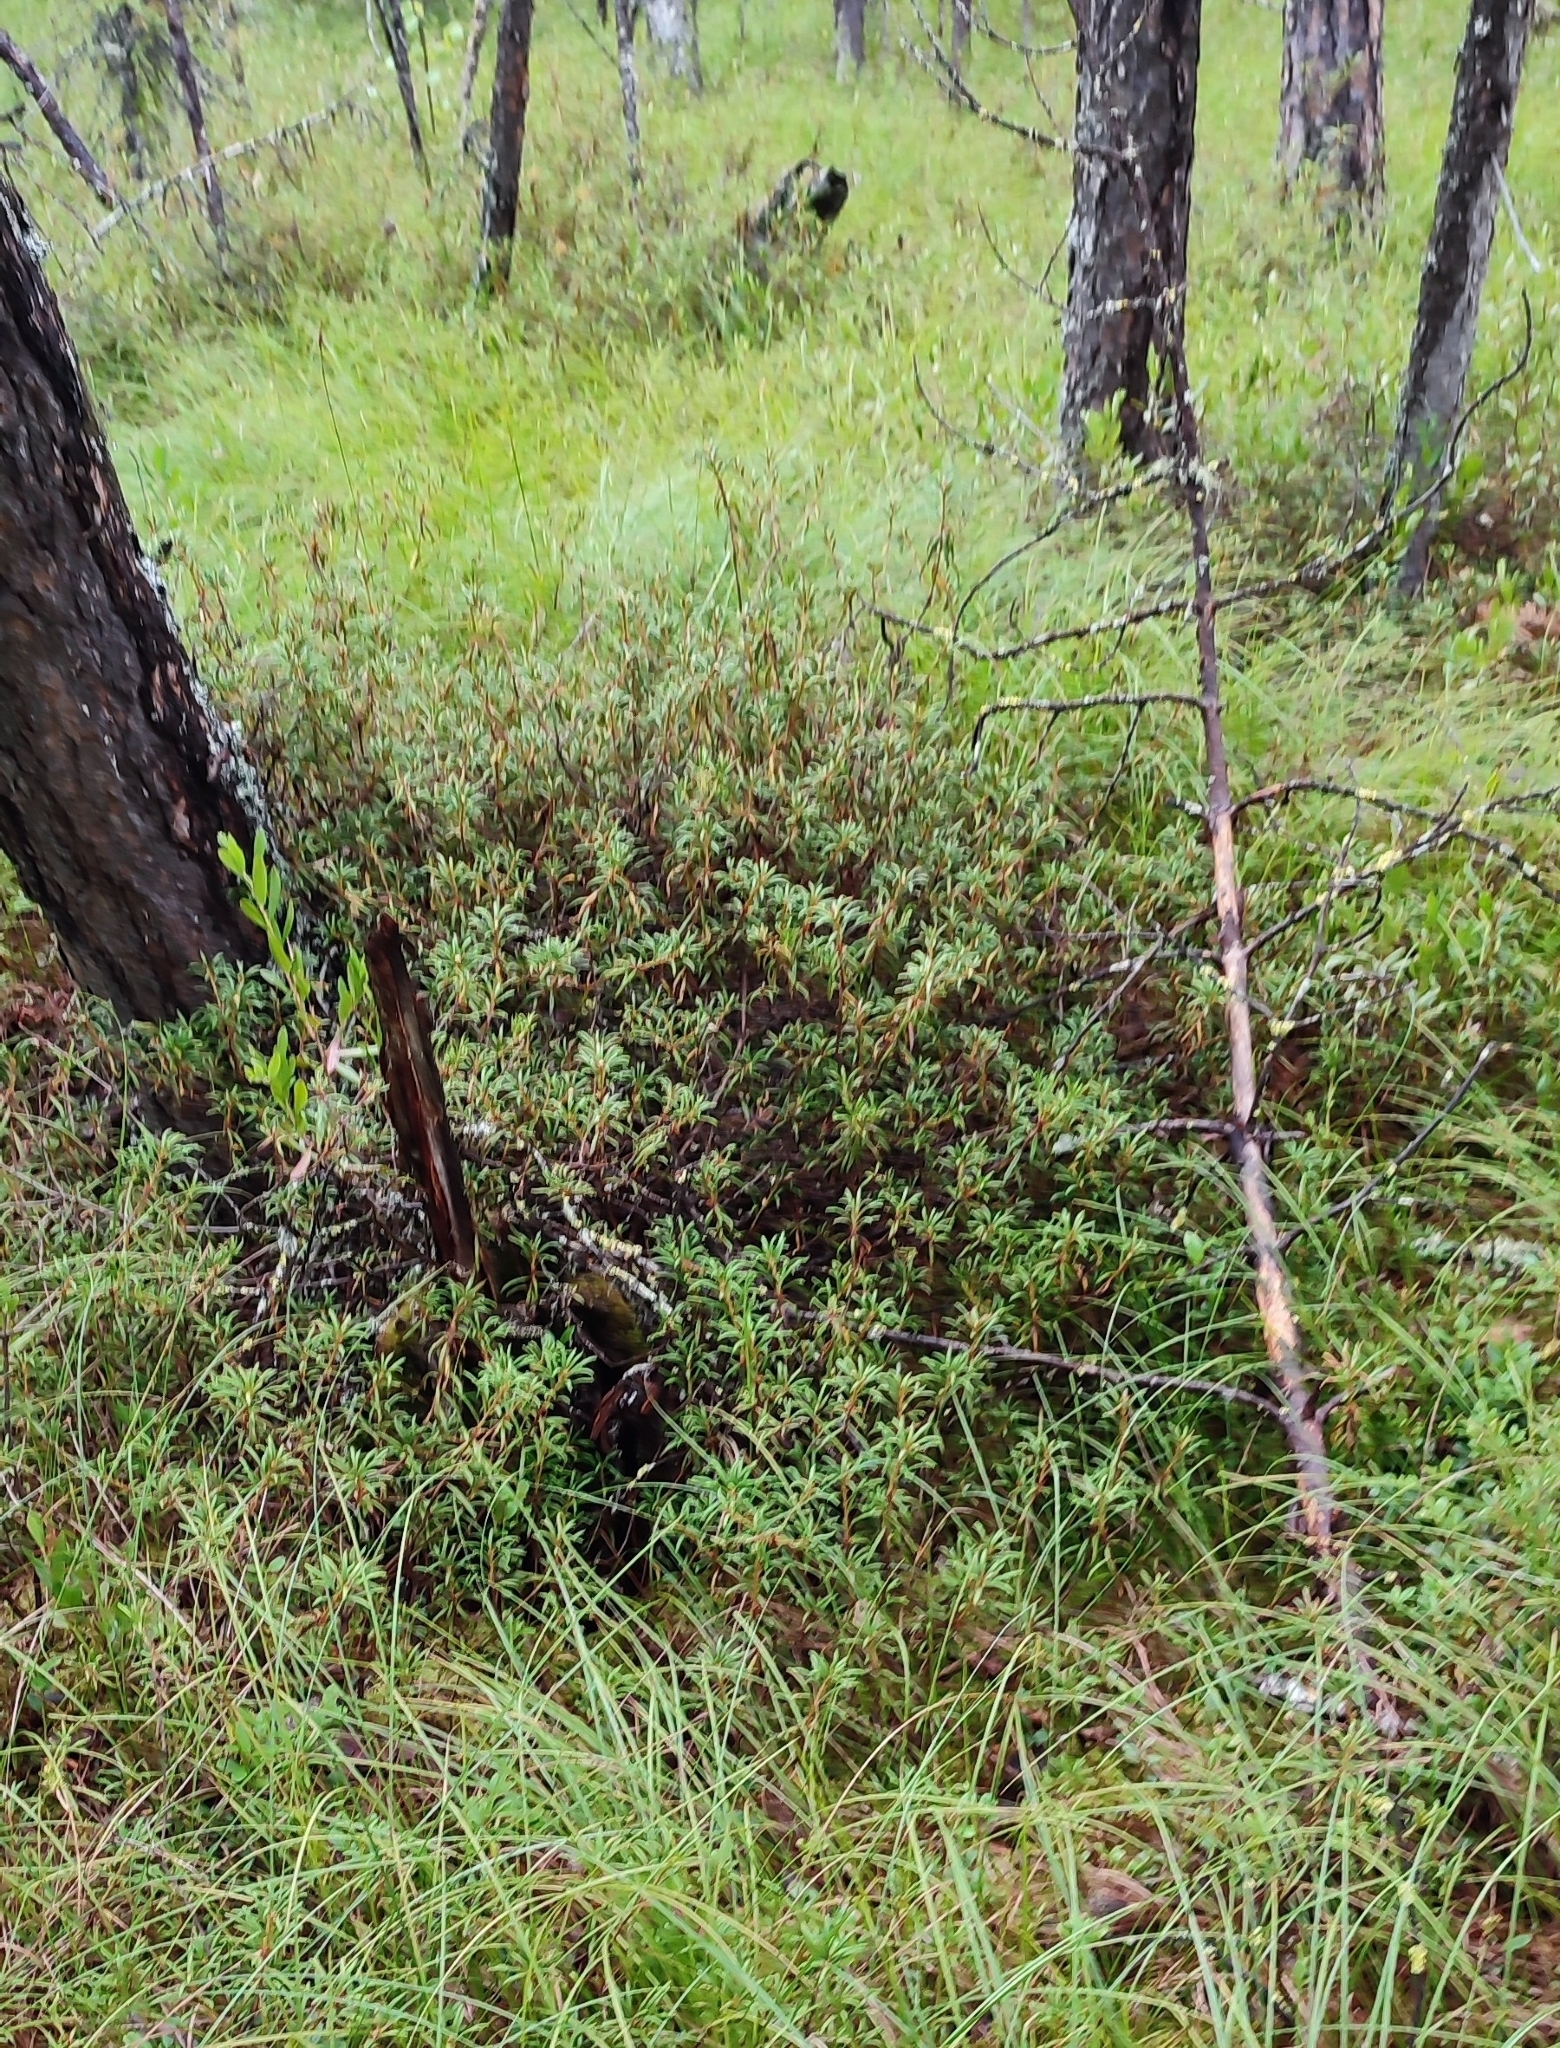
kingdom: Plantae
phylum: Tracheophyta
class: Magnoliopsida
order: Ericales
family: Ericaceae
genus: Rhododendron
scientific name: Rhododendron tomentosum
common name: Marsh labrador tea
